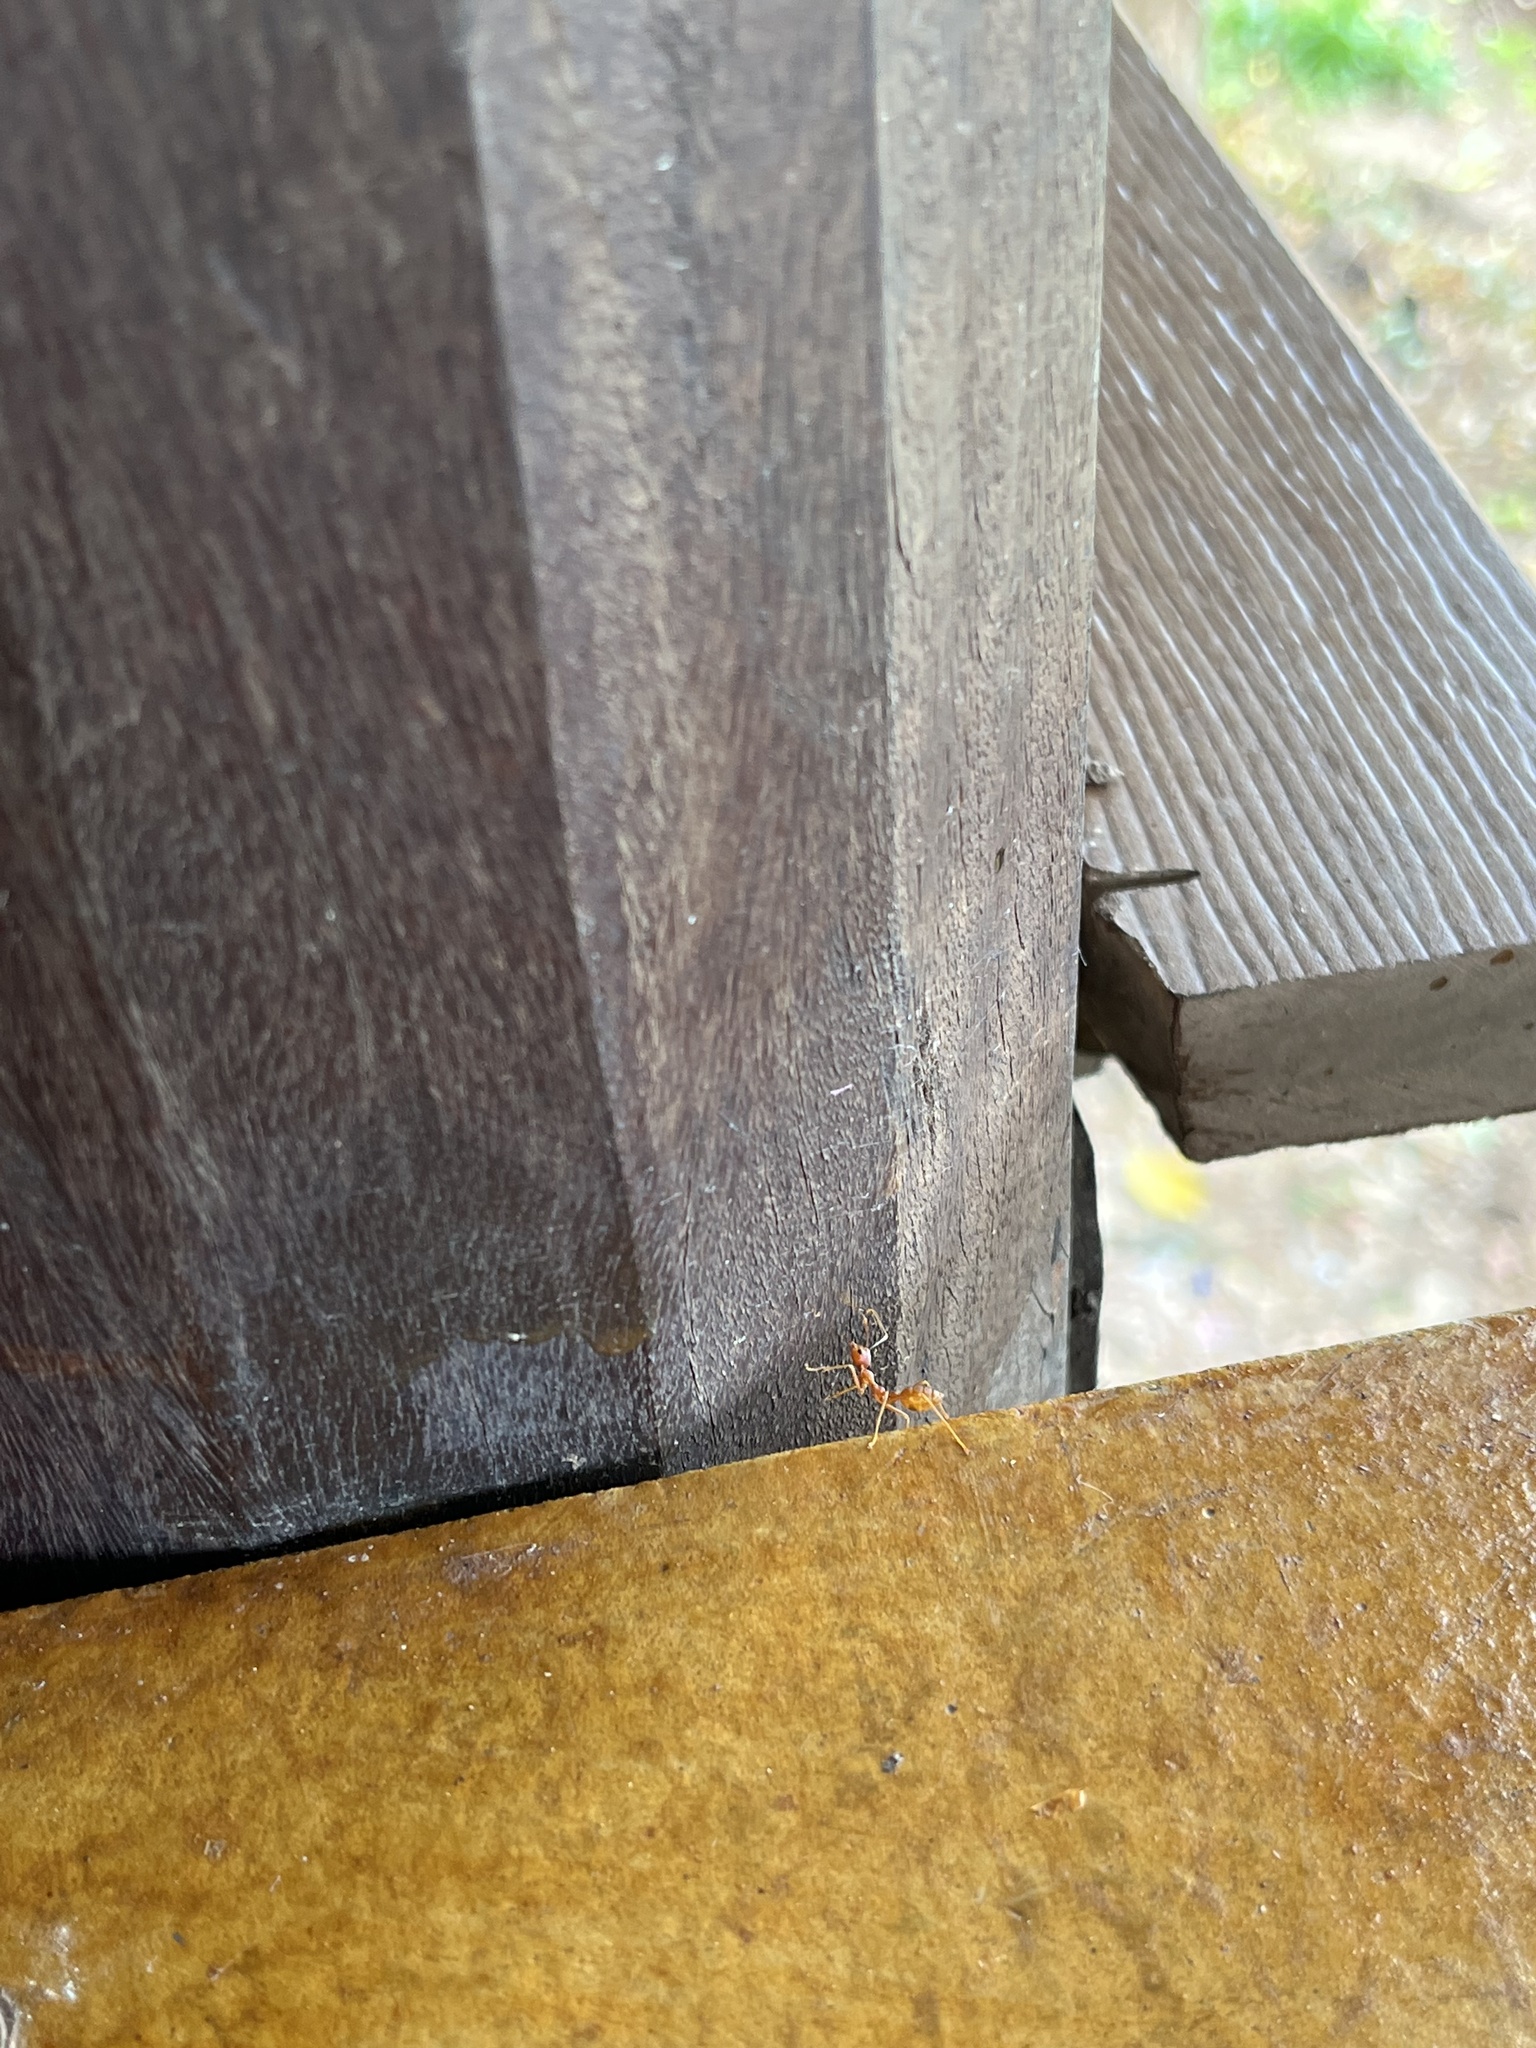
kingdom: Animalia
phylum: Arthropoda
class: Insecta
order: Hymenoptera
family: Formicidae
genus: Oecophylla
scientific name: Oecophylla smaragdina
